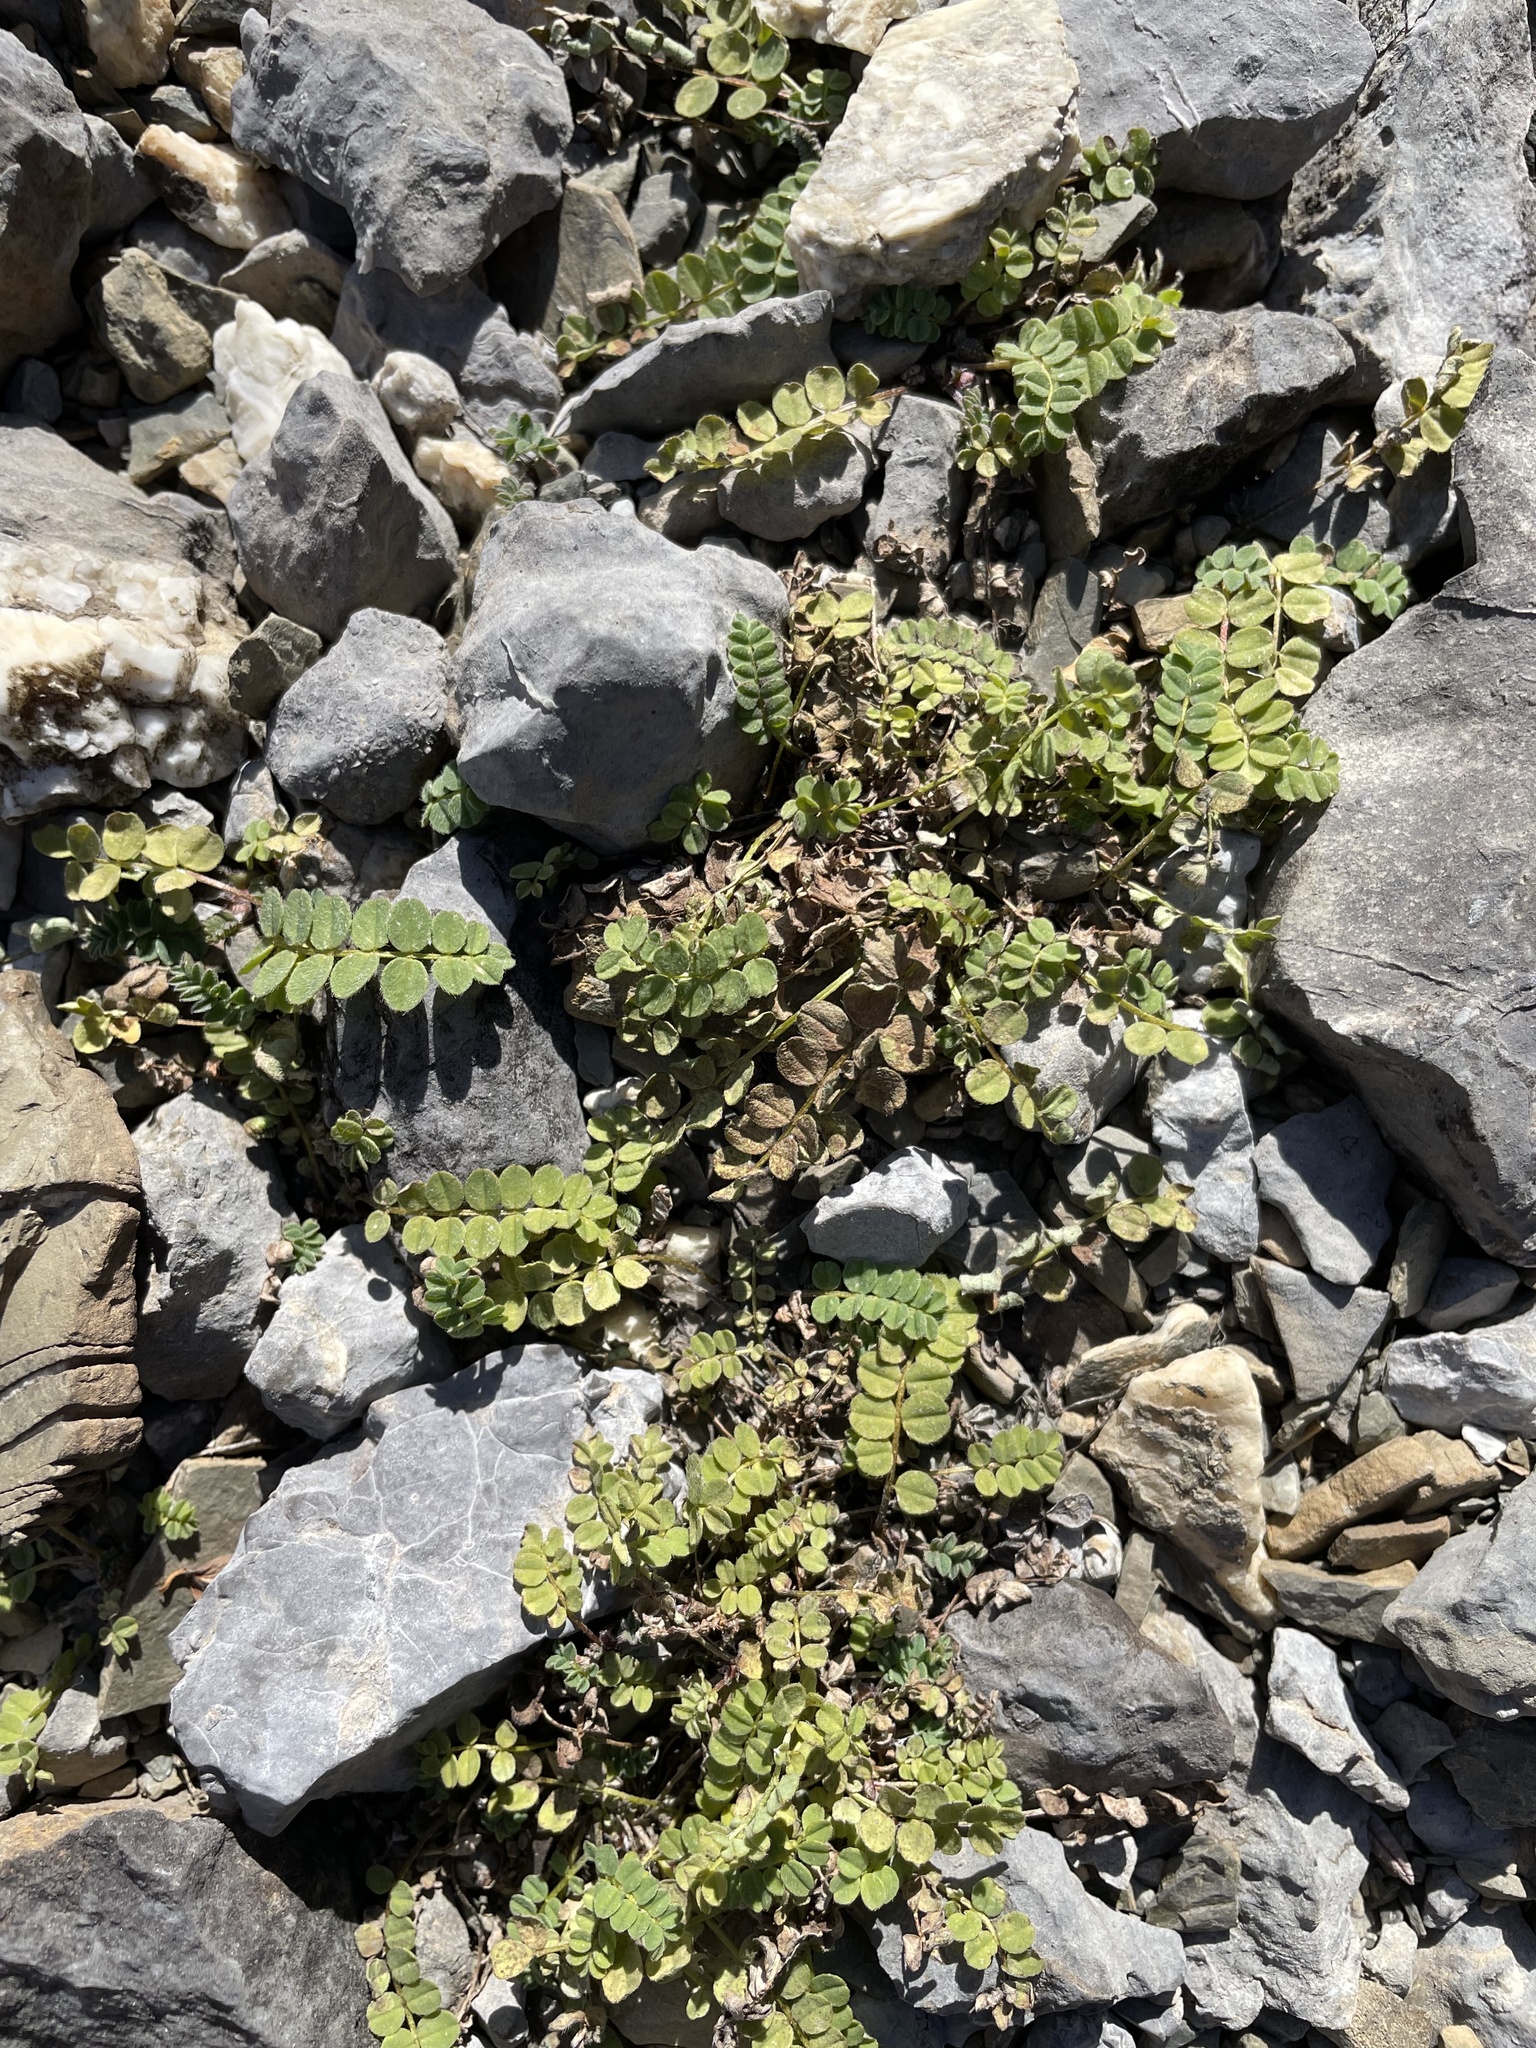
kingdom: Plantae
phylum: Tracheophyta
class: Magnoliopsida
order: Fabales
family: Fabaceae
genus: Astragalus
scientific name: Astragalus alpinus
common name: Alpine milk-vetch
